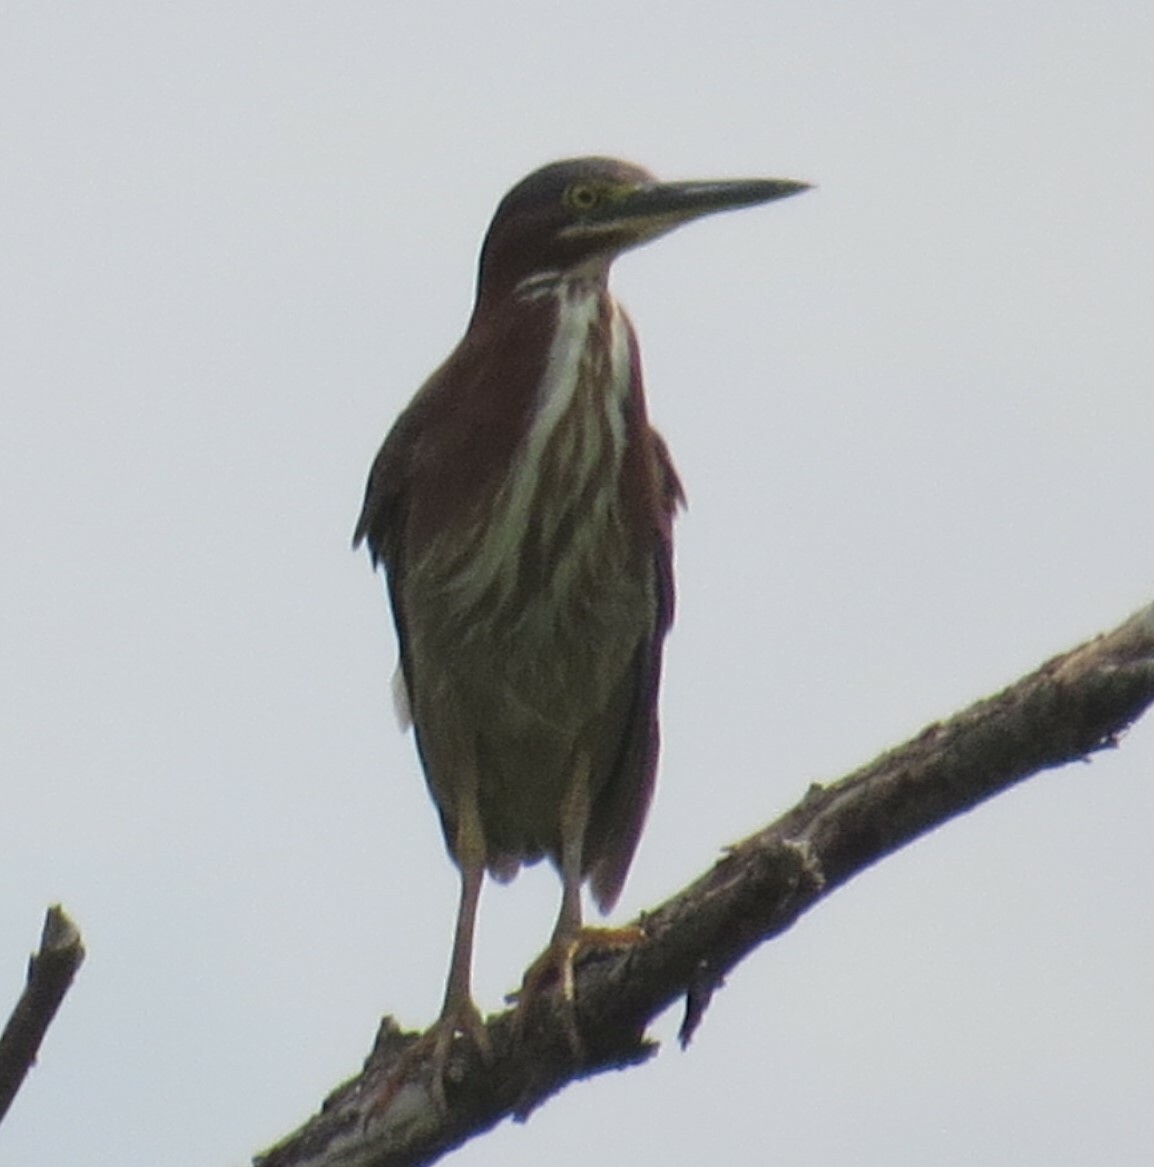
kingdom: Animalia
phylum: Chordata
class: Aves
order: Pelecaniformes
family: Ardeidae
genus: Butorides
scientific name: Butorides virescens
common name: Green heron
